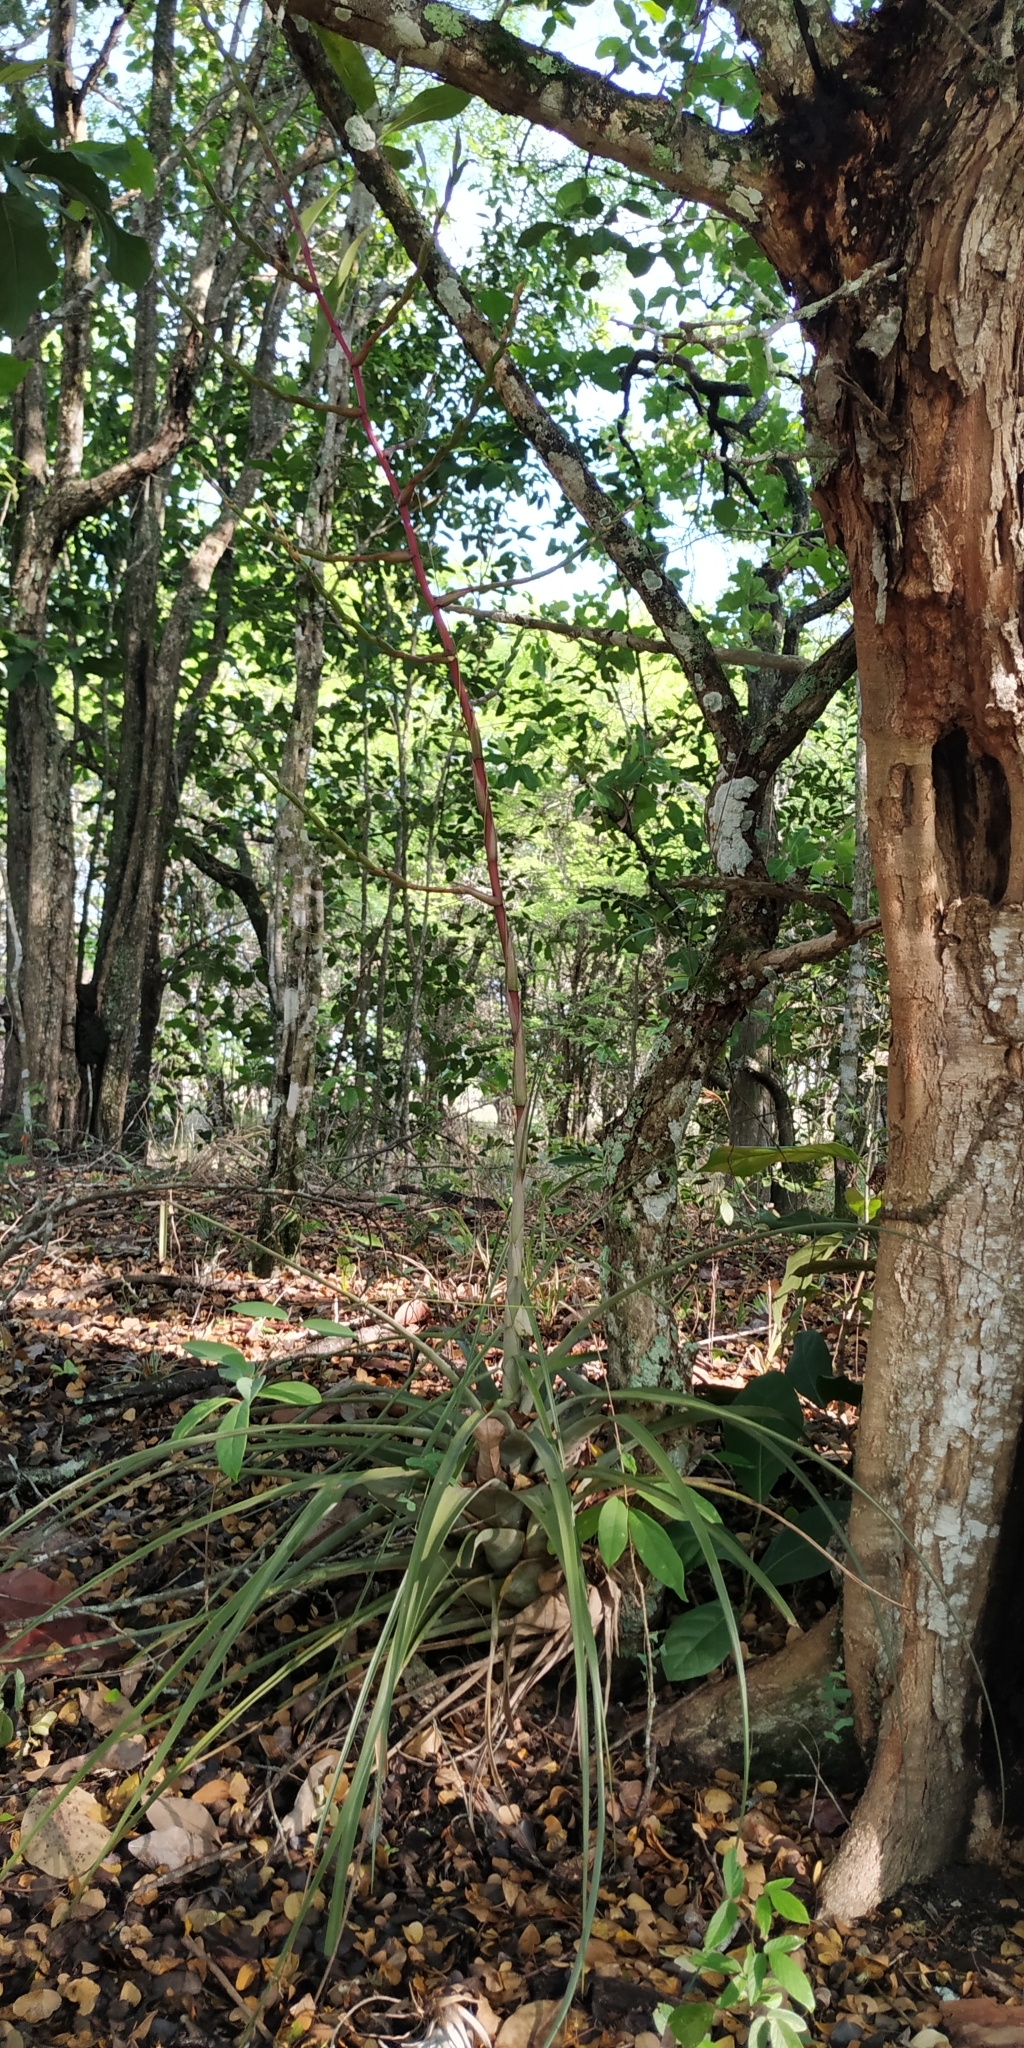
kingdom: Plantae
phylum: Tracheophyta
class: Liliopsida
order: Poales
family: Bromeliaceae
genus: Tillandsia
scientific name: Tillandsia utriculata
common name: Wild pine
